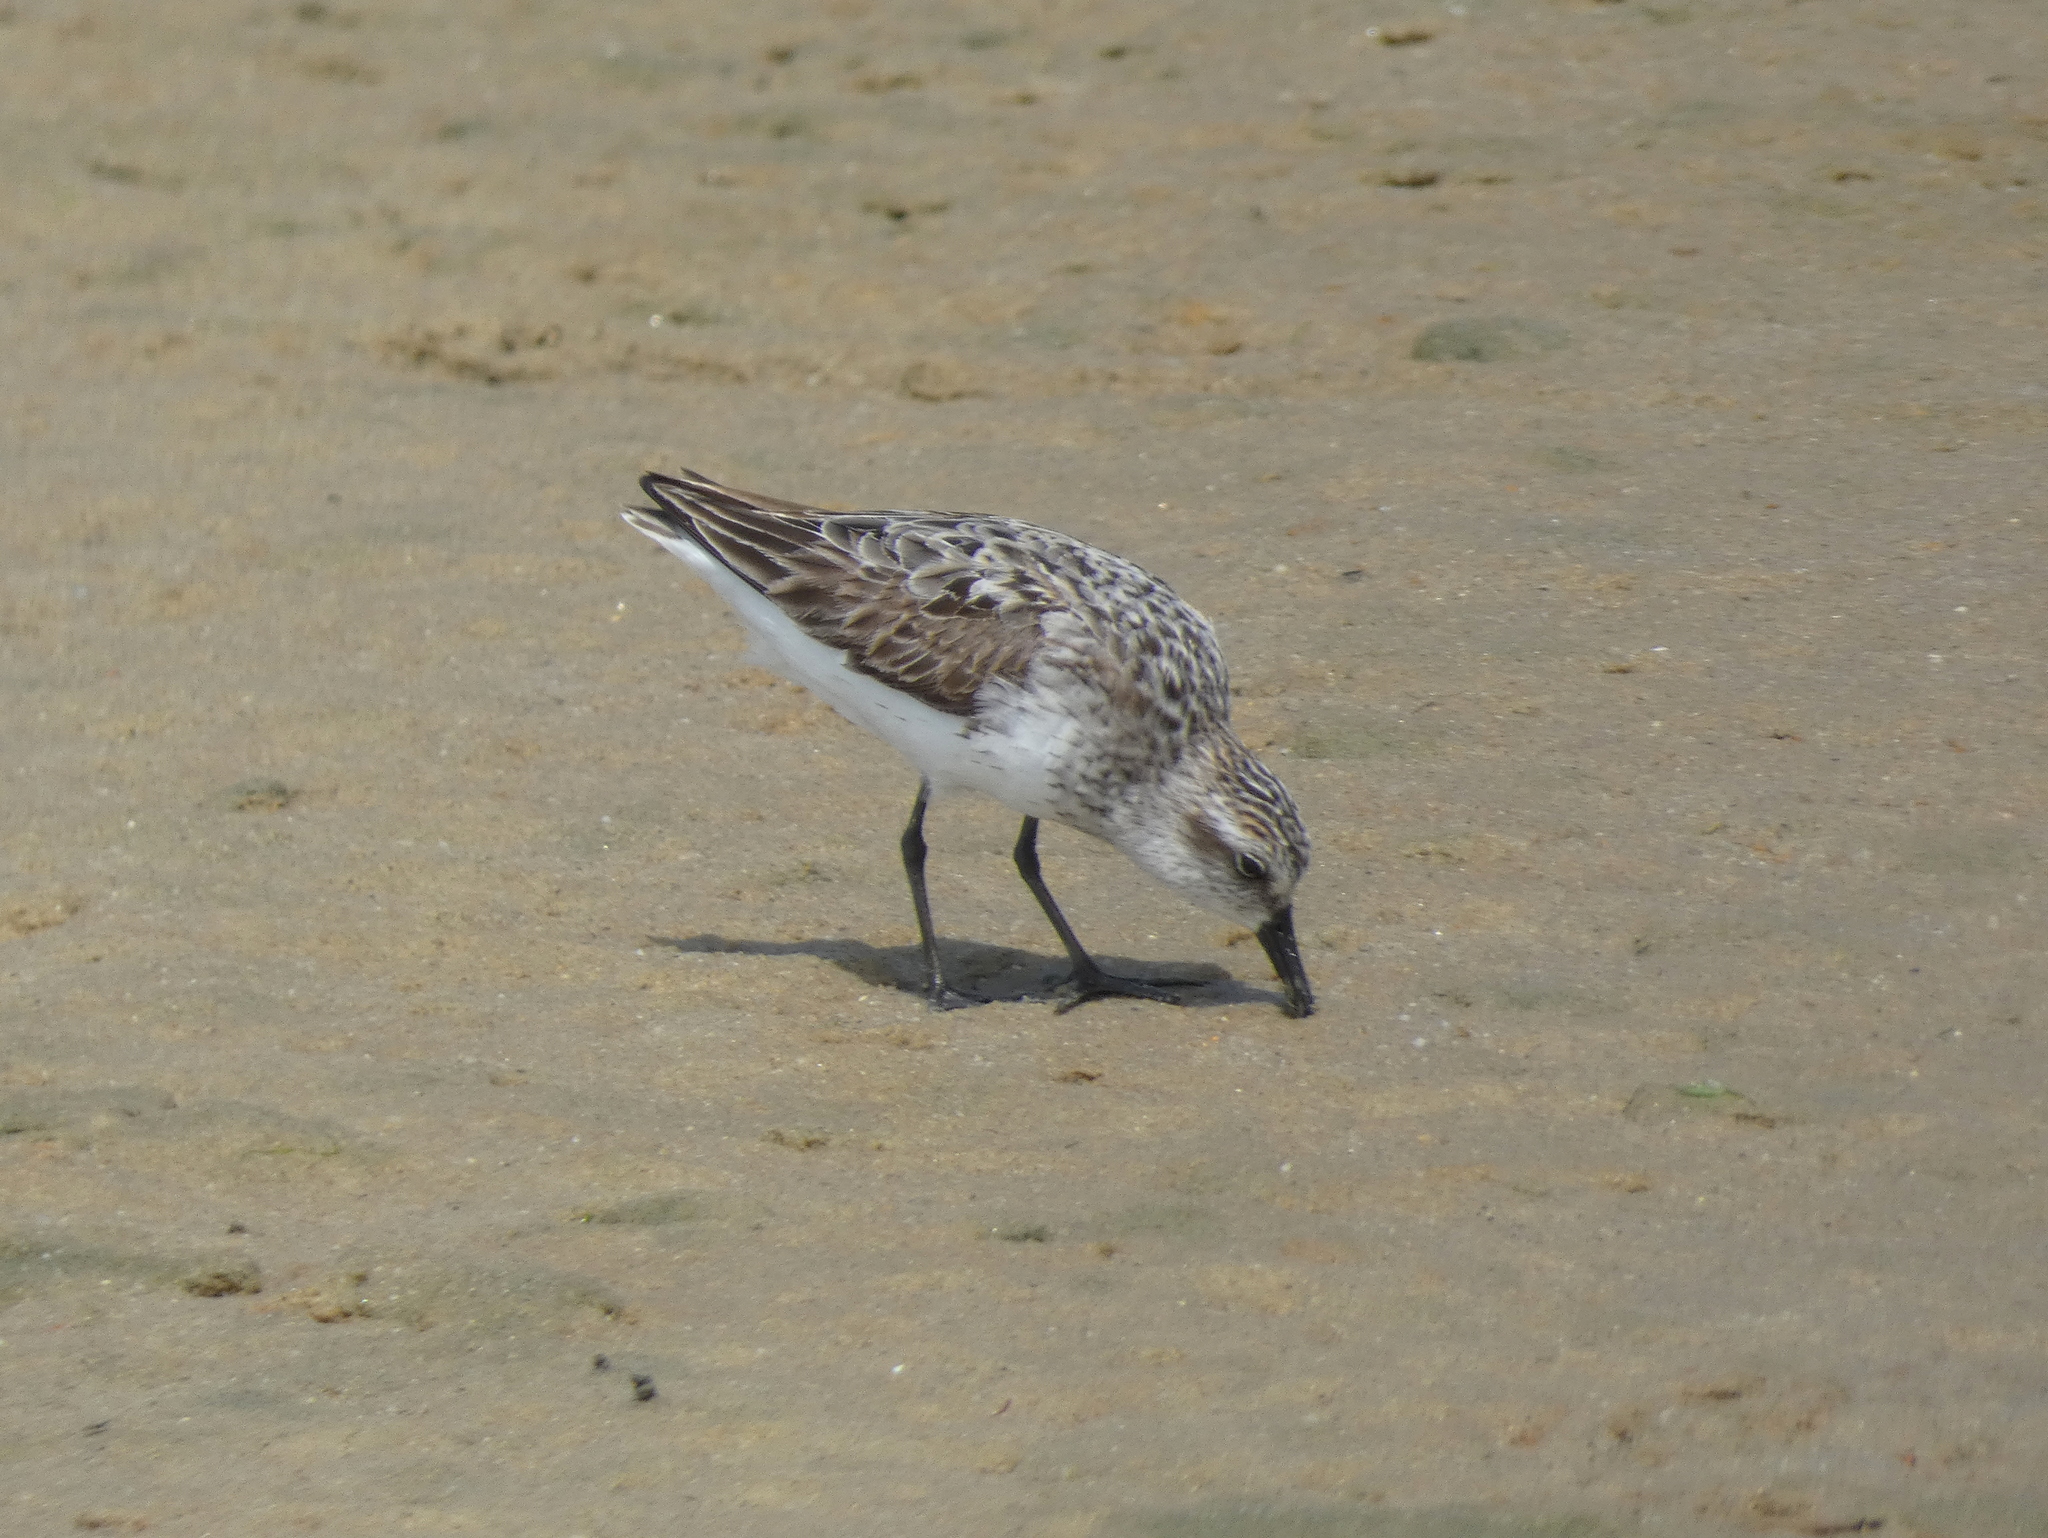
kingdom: Animalia
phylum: Chordata
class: Aves
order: Charadriiformes
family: Scolopacidae
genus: Calidris
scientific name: Calidris pusilla
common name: Semipalmated sandpiper
